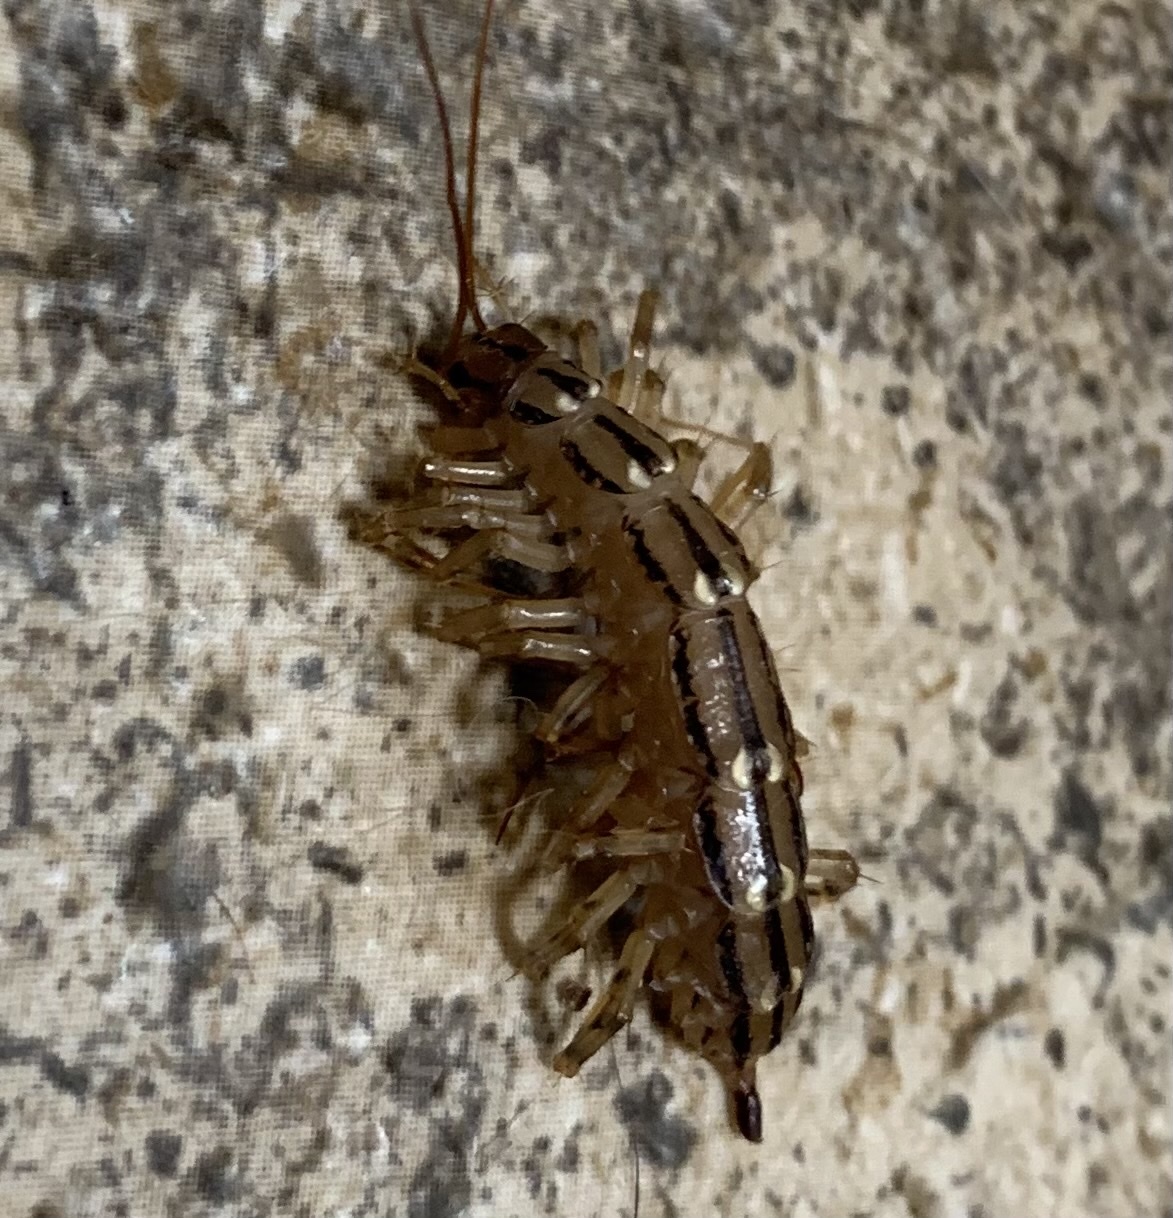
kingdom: Animalia
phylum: Arthropoda
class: Chilopoda
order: Scutigeromorpha
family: Scutigeridae
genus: Scutigera
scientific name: Scutigera coleoptrata
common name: House centipede
